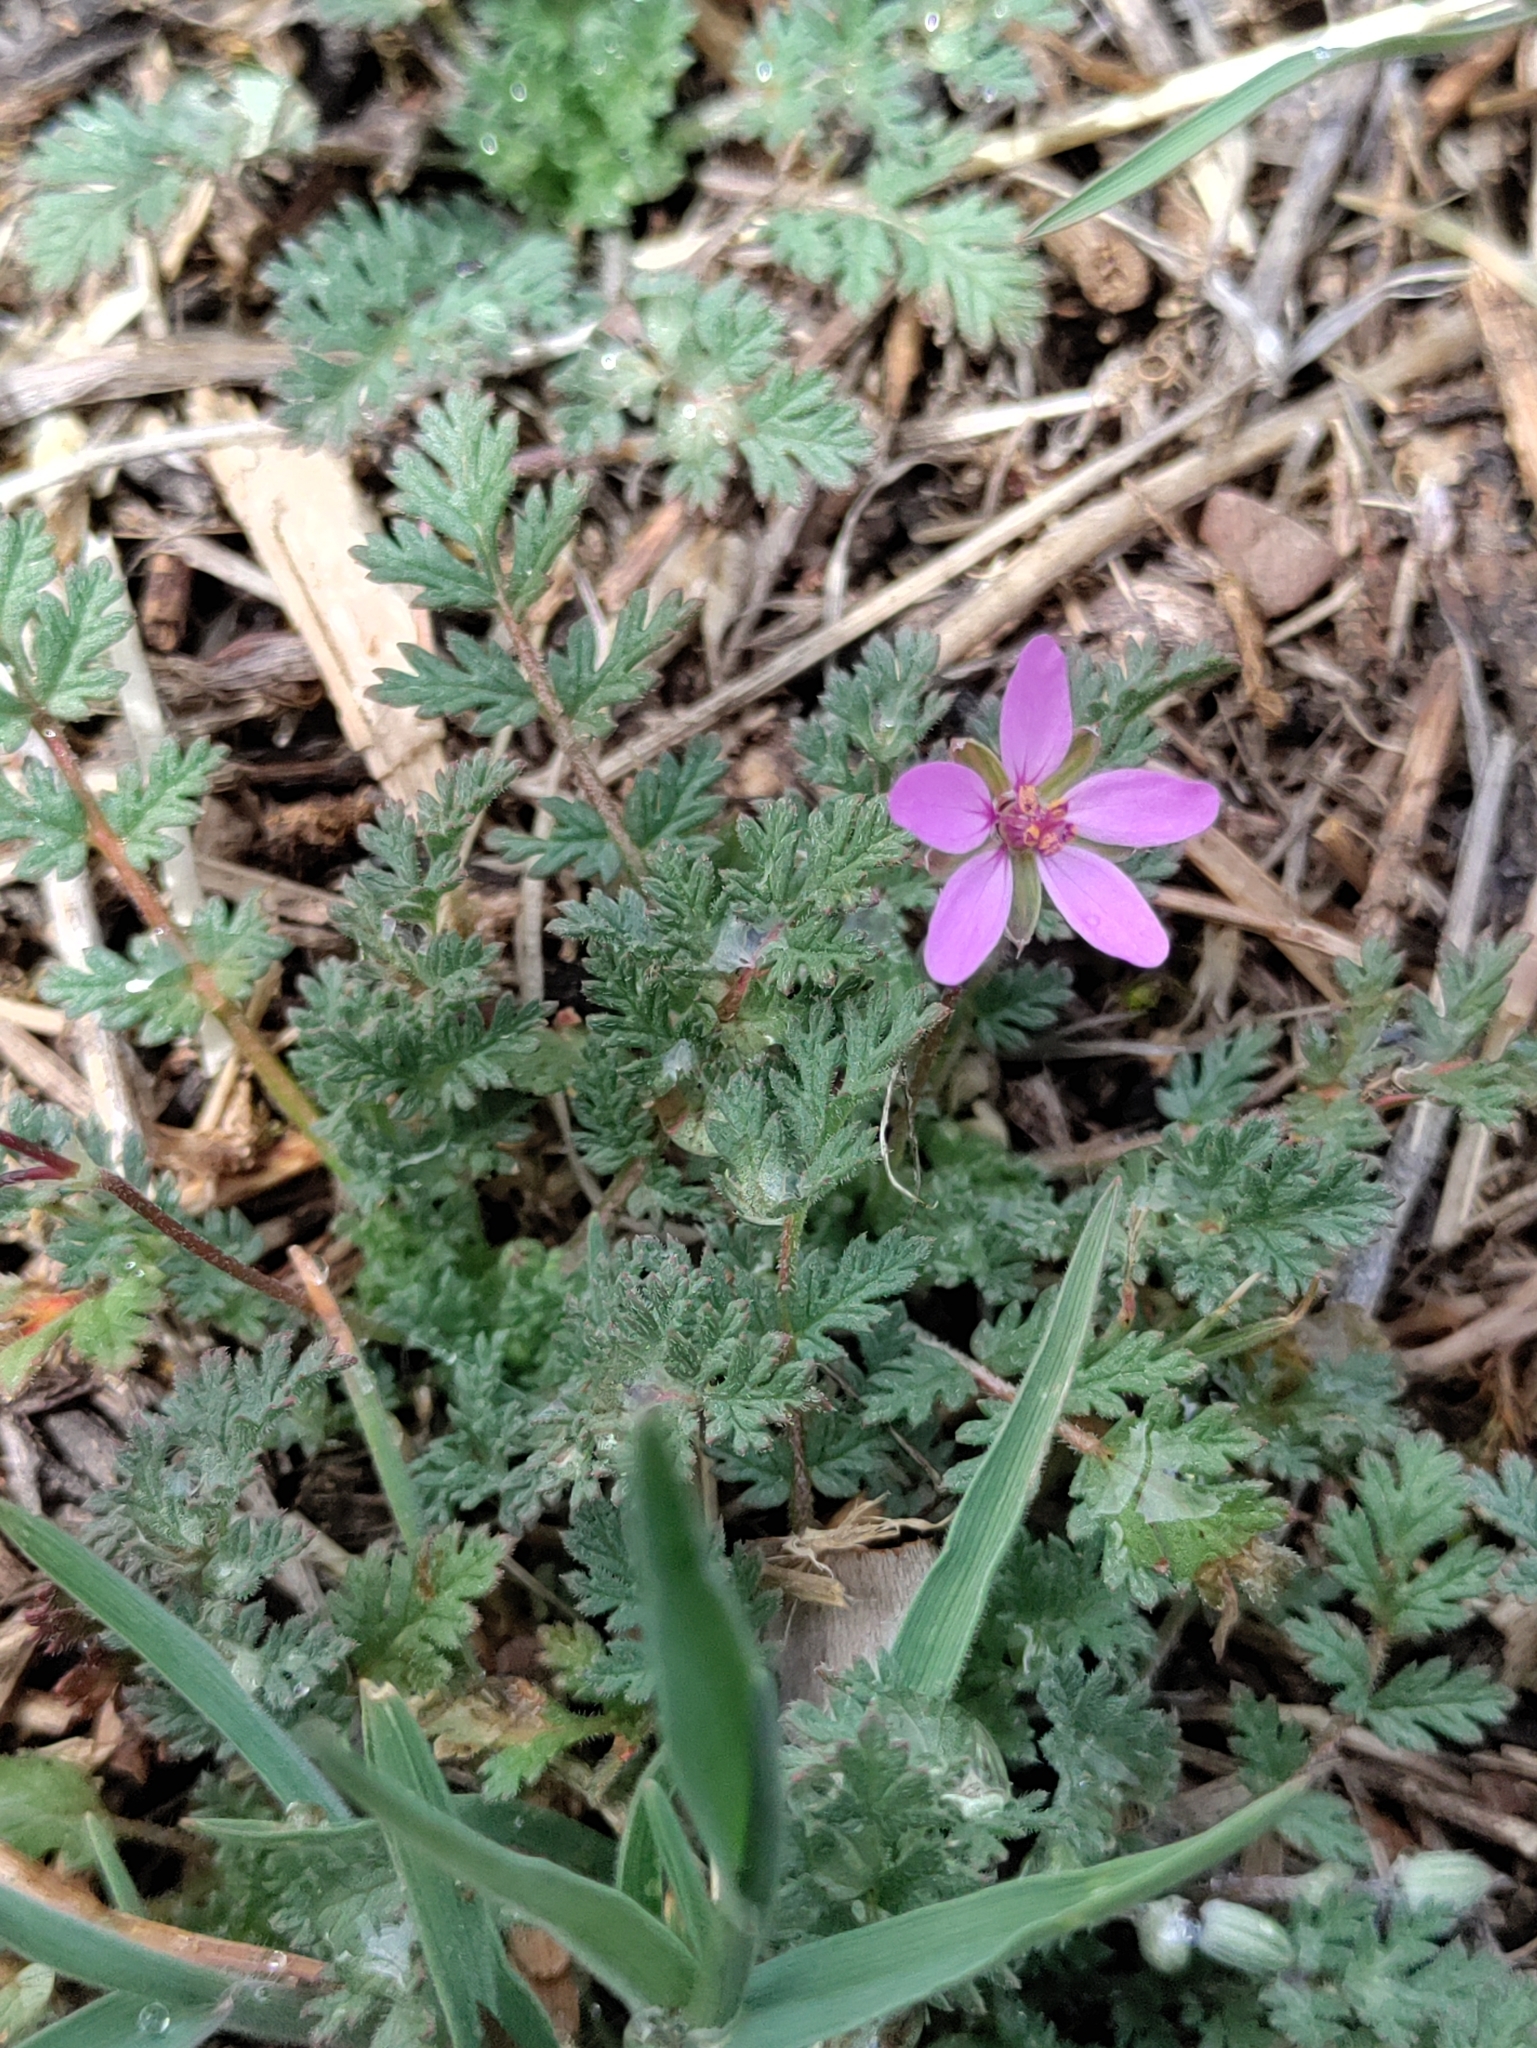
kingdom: Plantae
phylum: Tracheophyta
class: Magnoliopsida
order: Geraniales
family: Geraniaceae
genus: Erodium
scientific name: Erodium cicutarium
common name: Common stork's-bill
